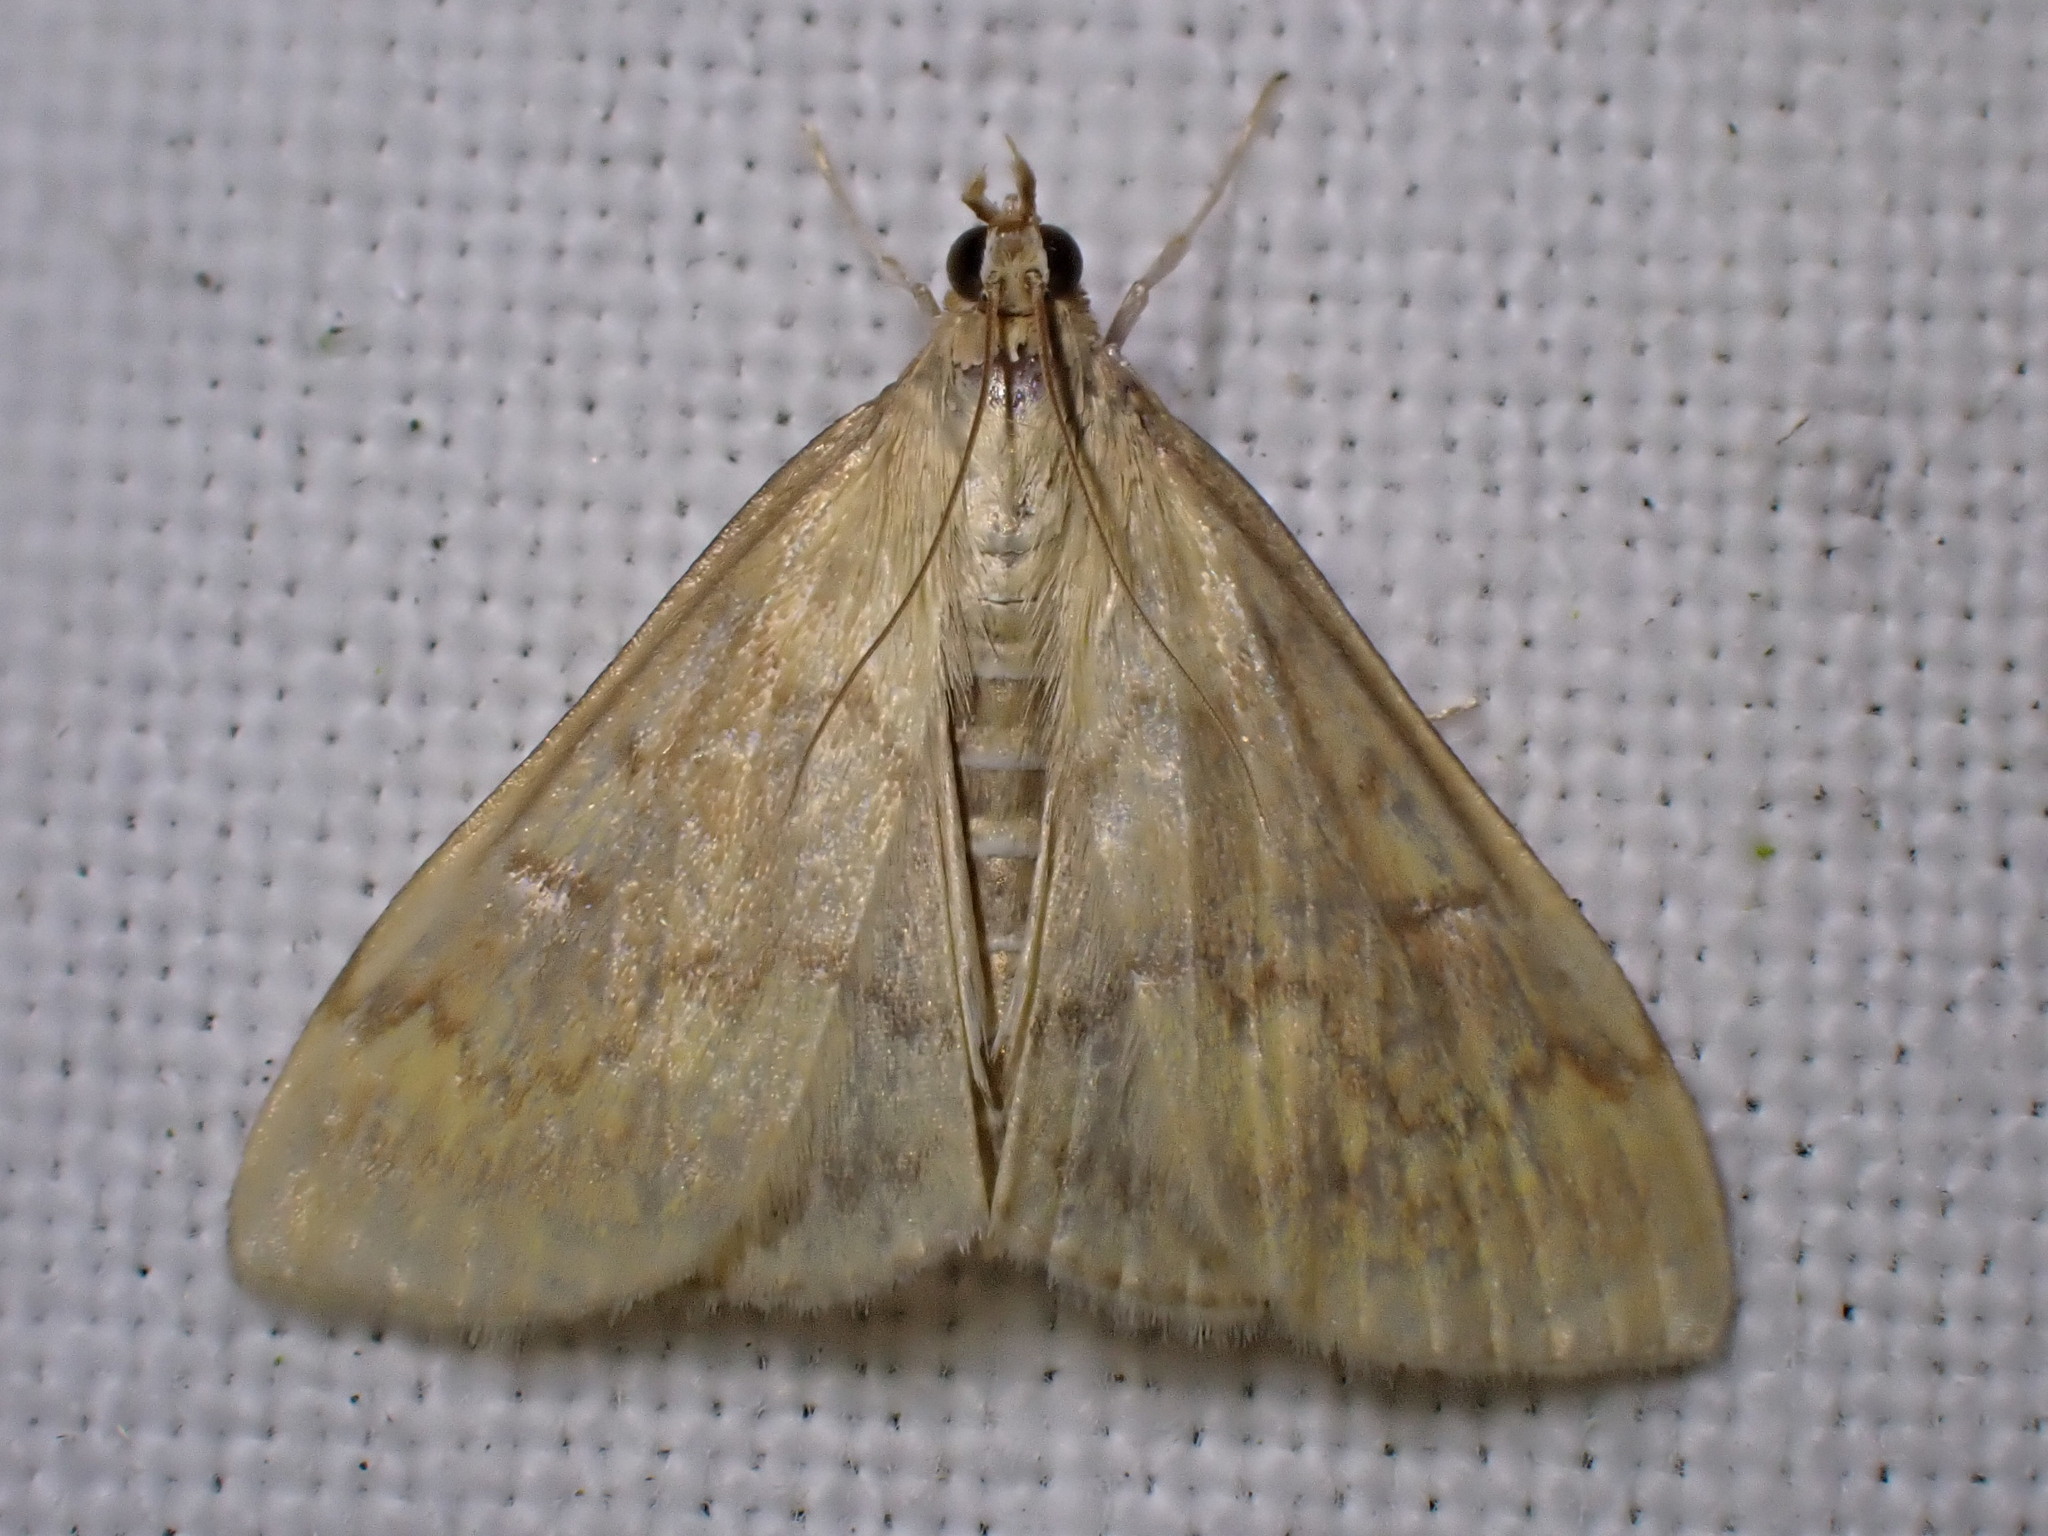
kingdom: Animalia
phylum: Arthropoda
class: Insecta
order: Lepidoptera
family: Crambidae
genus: Ostrinia
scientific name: Ostrinia nubilalis
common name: European corn borer
